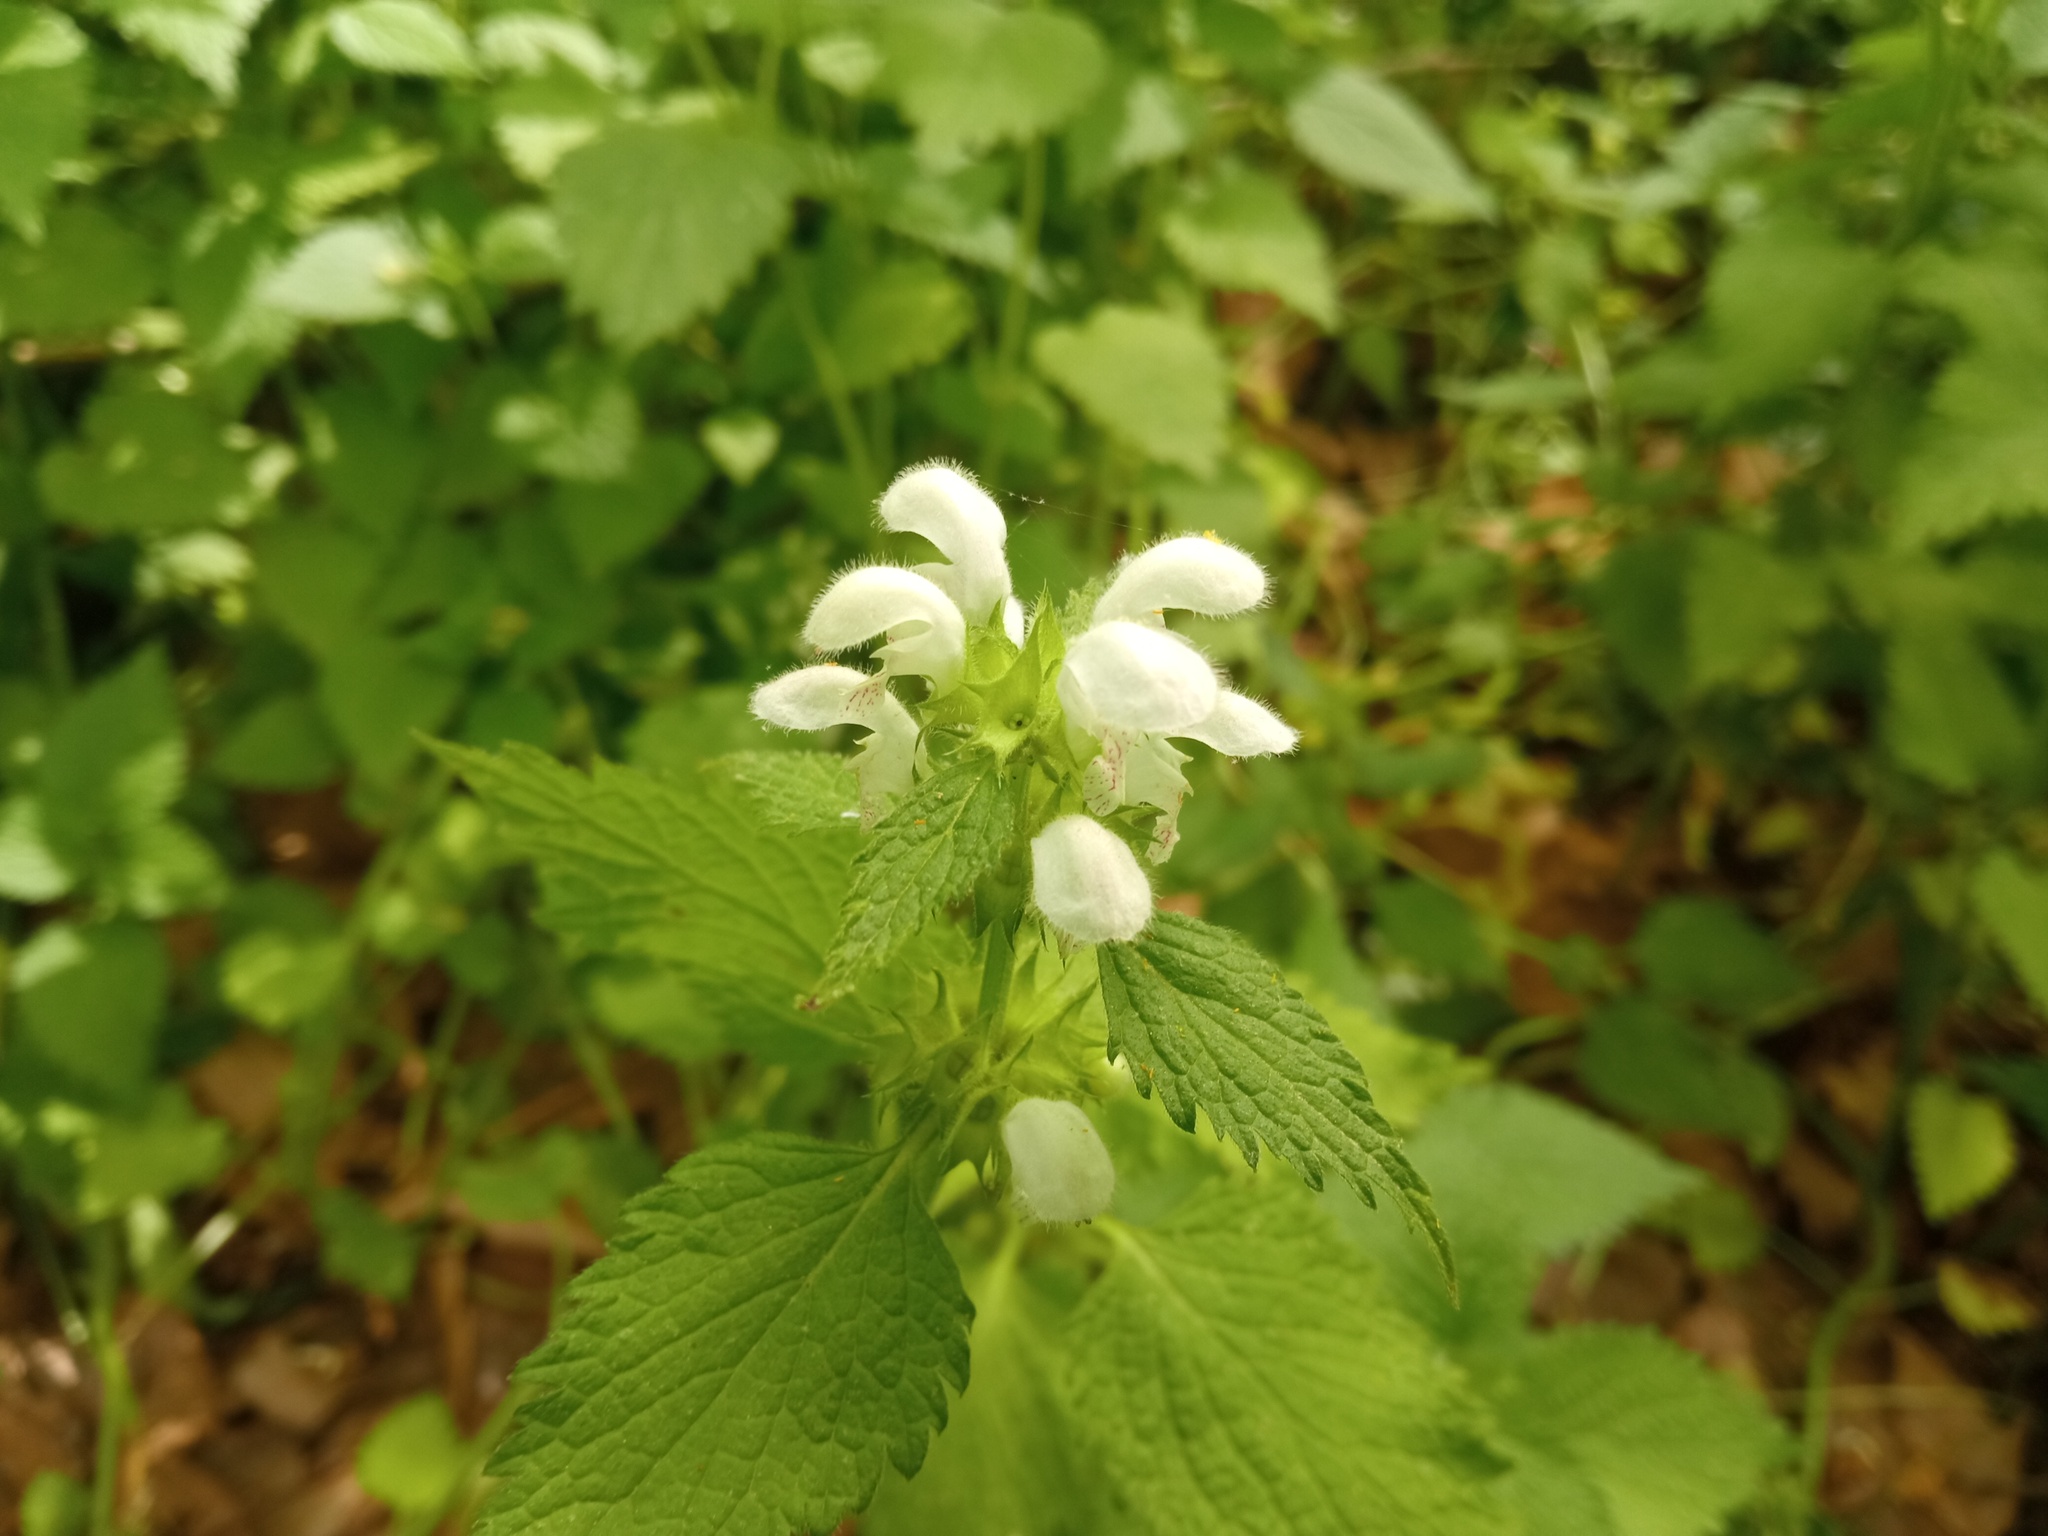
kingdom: Plantae
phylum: Tracheophyta
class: Magnoliopsida
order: Lamiales
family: Lamiaceae
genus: Lamium
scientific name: Lamium flexuosum
